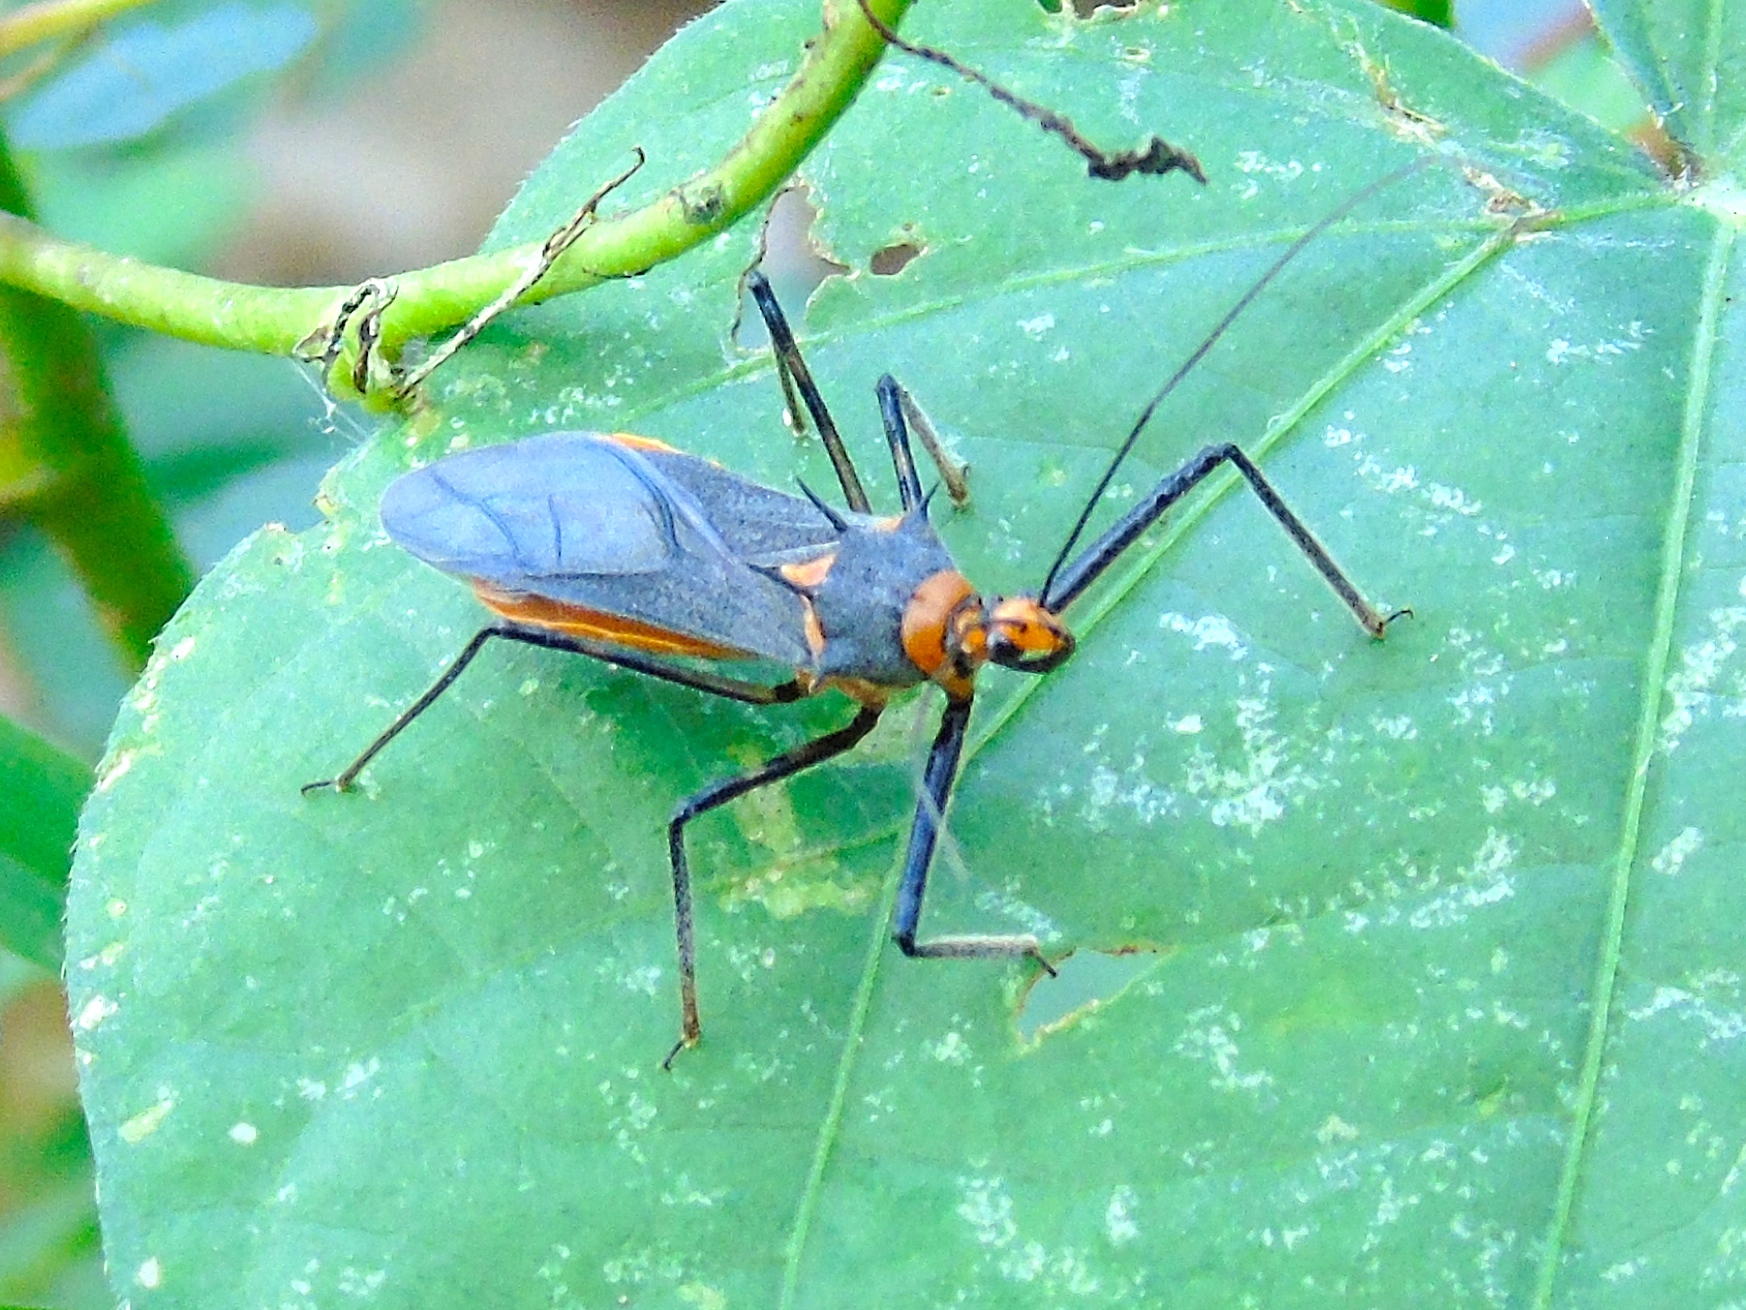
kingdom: Animalia
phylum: Arthropoda
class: Insecta
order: Hemiptera
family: Reduviidae
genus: Repipta
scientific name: Repipta fuscipes
